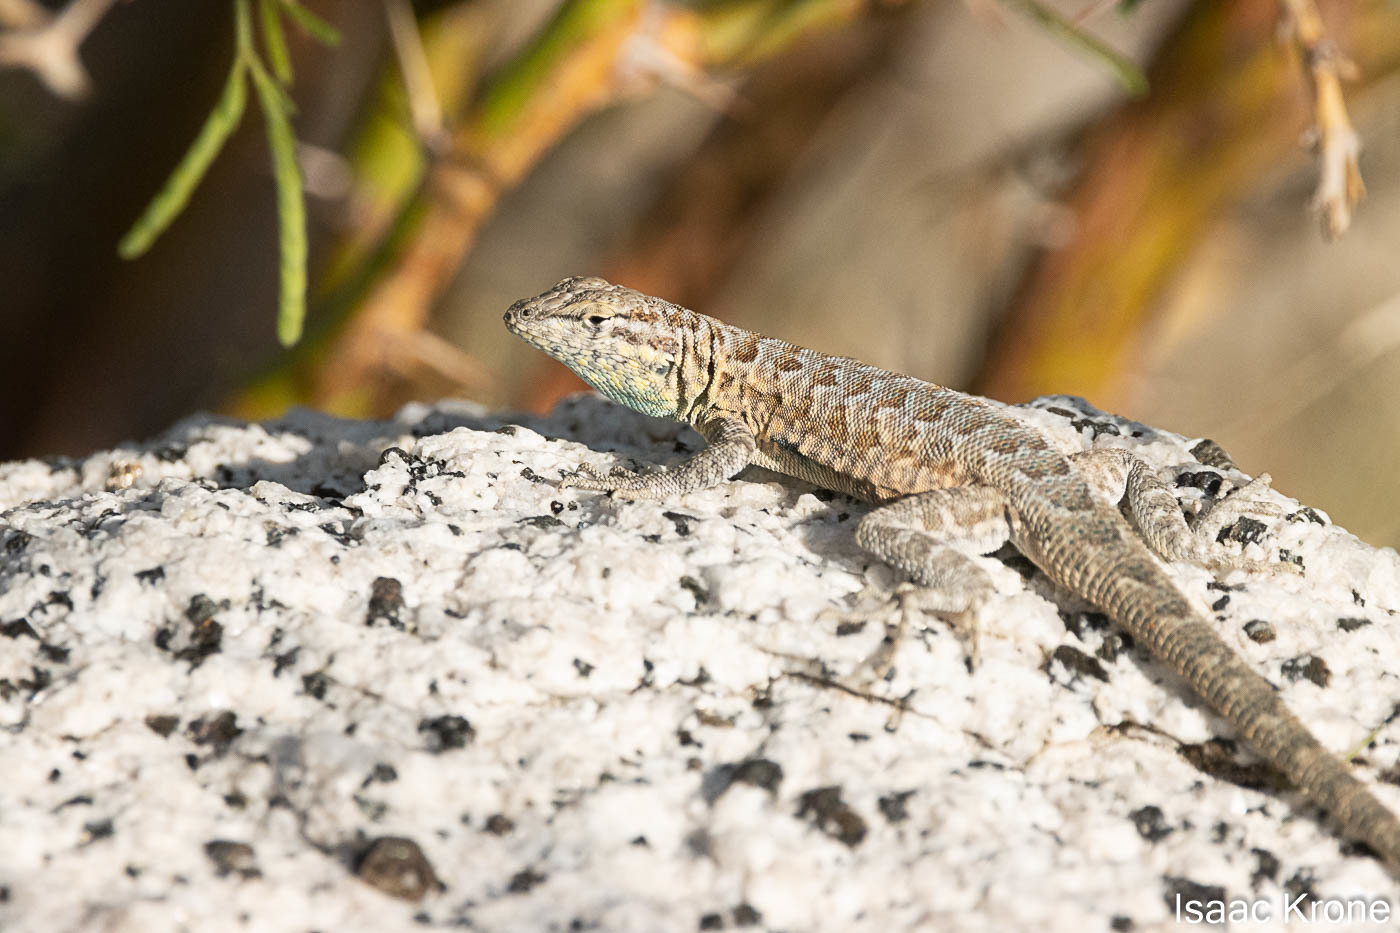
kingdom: Animalia
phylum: Chordata
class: Squamata
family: Phrynosomatidae
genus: Uta
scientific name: Uta stansburiana
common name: Side-blotched lizard
